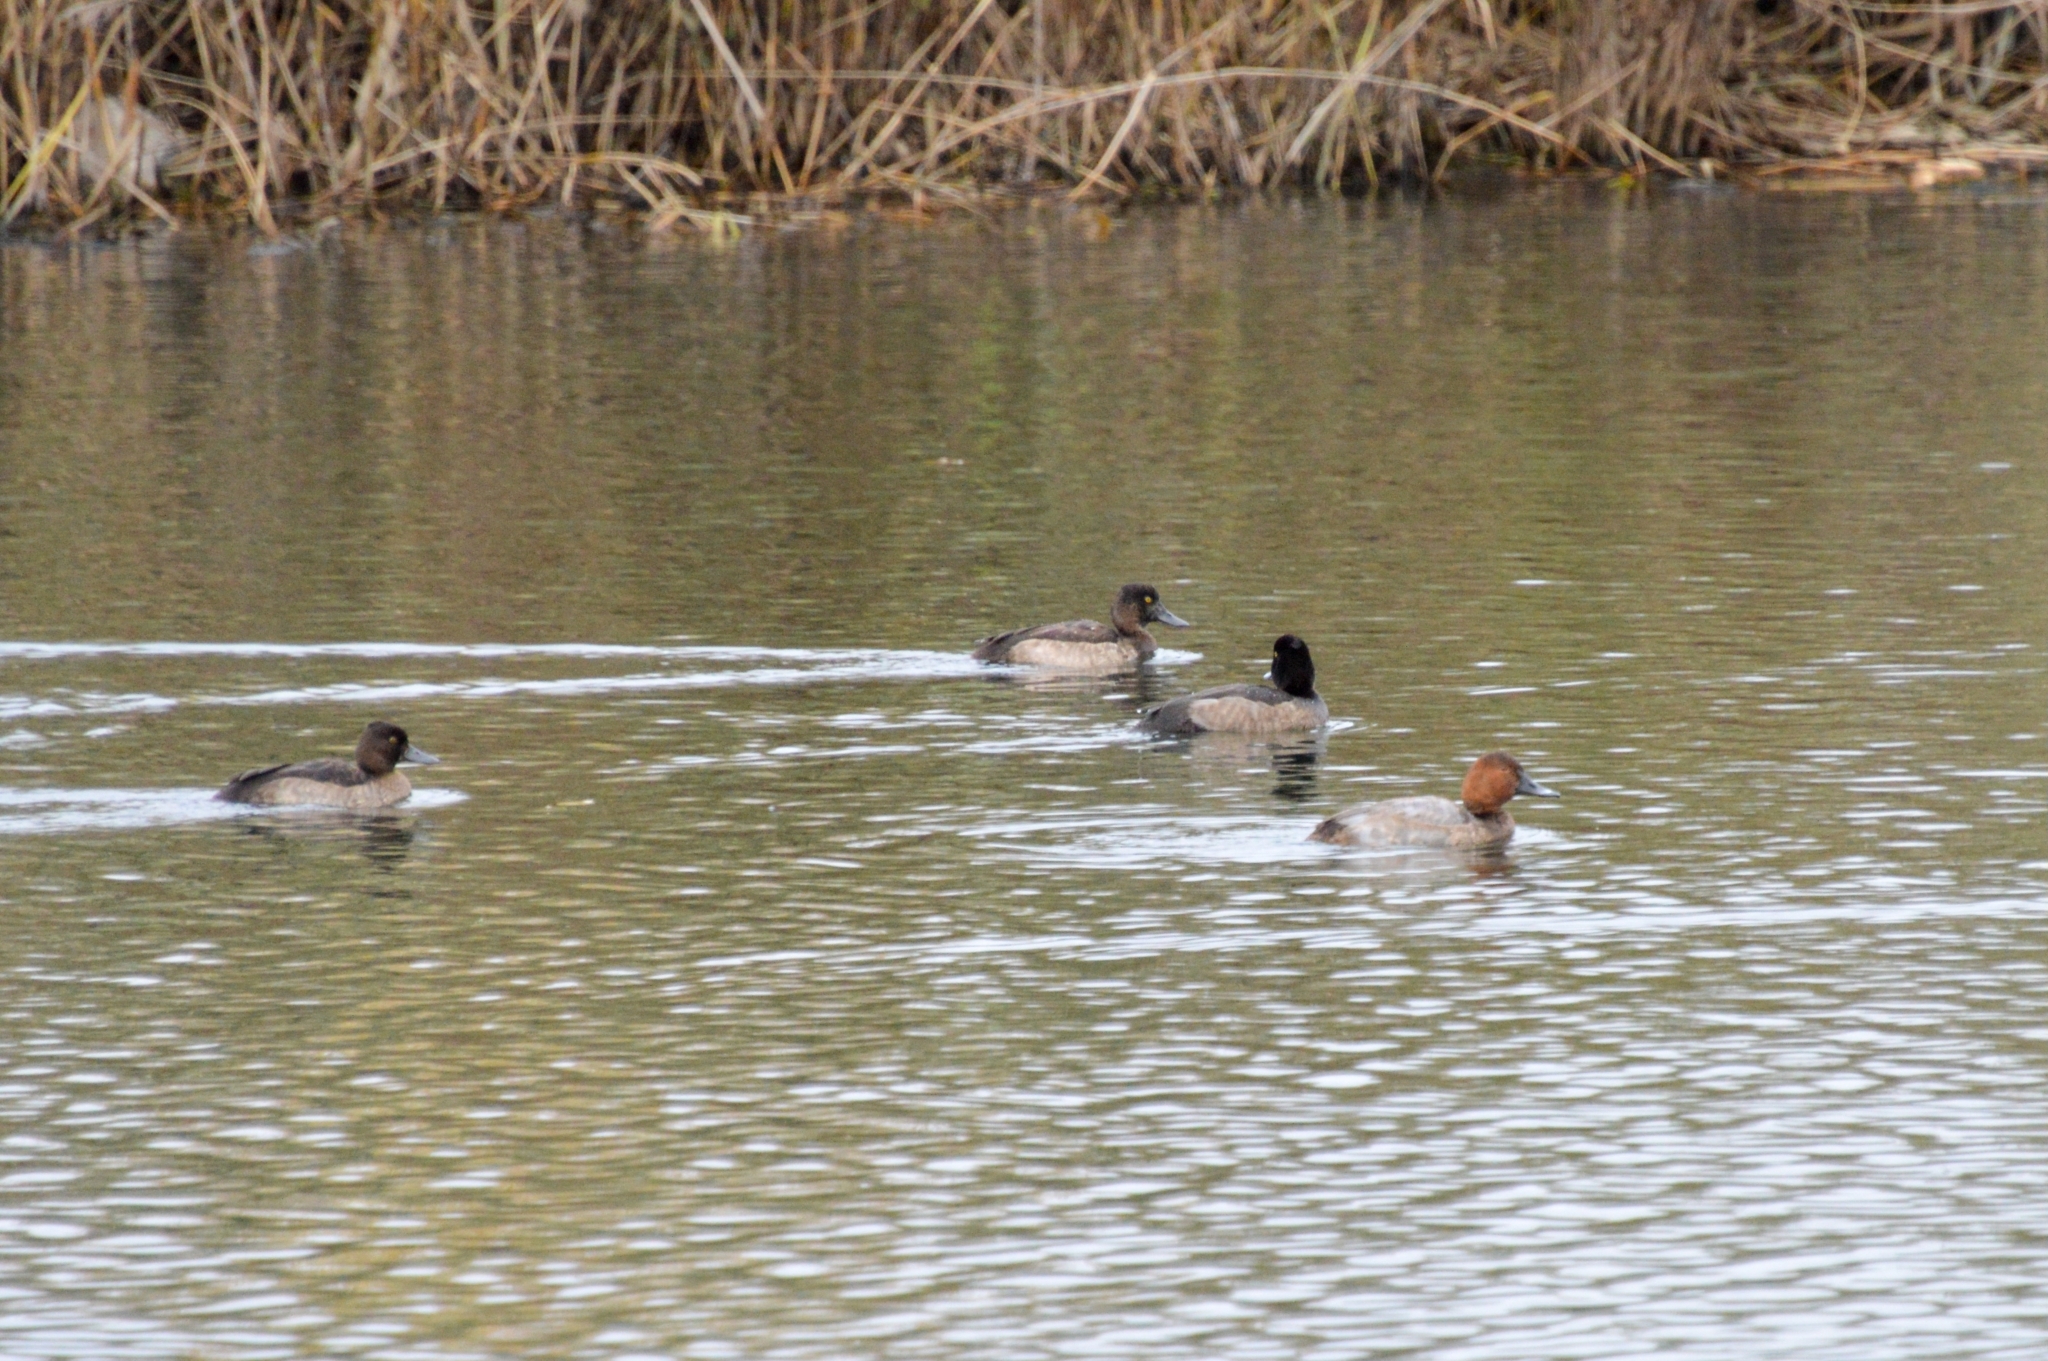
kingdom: Animalia
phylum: Chordata
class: Aves
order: Anseriformes
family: Anatidae
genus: Aythya
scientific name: Aythya fuligula
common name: Tufted duck
